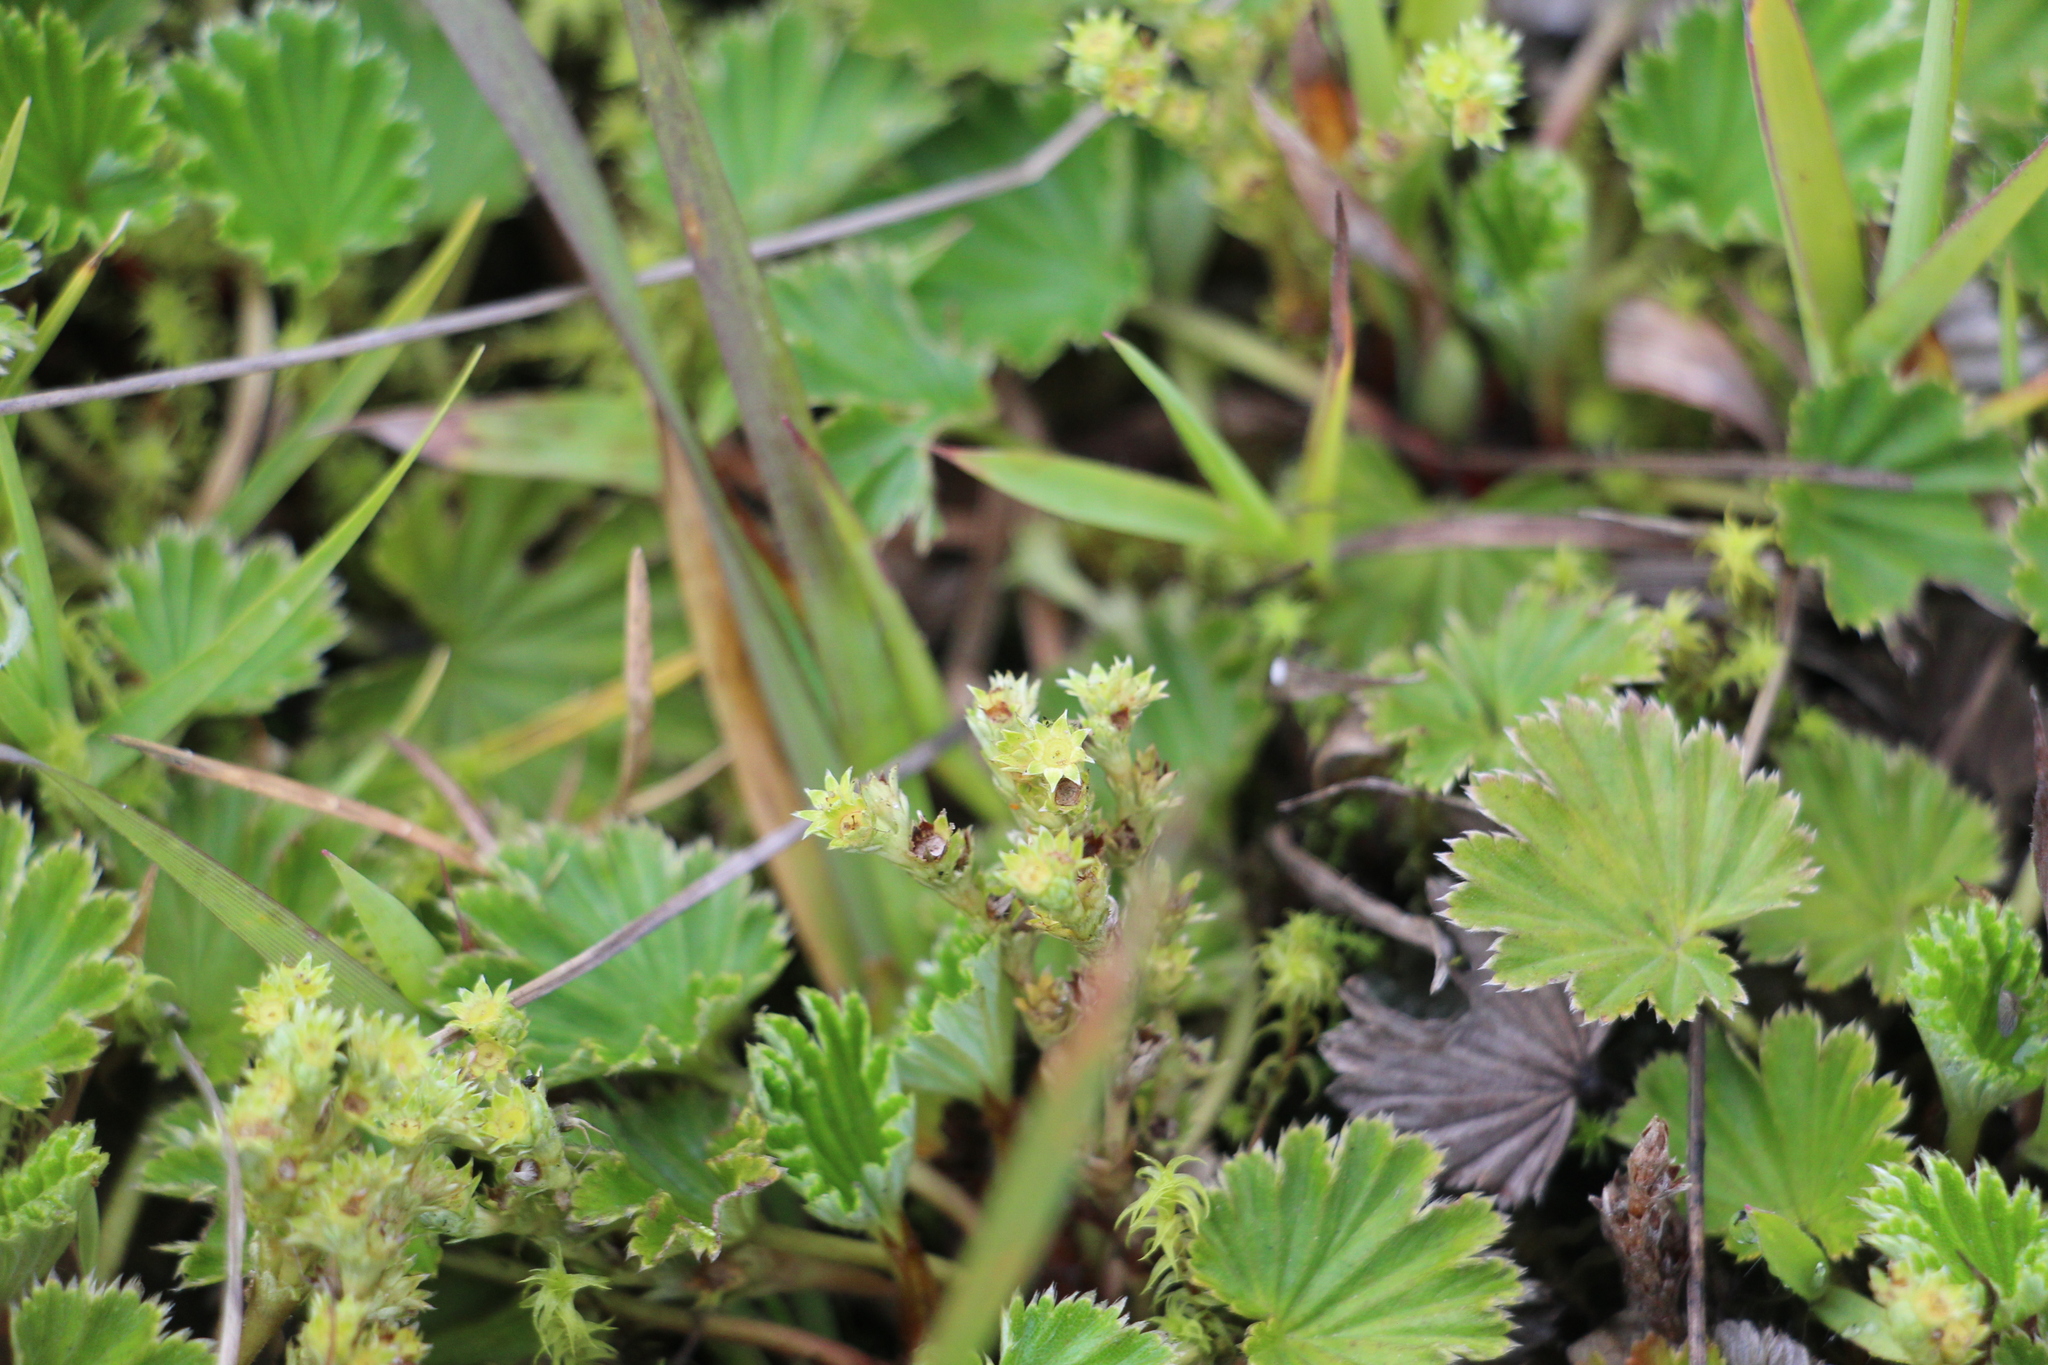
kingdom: Plantae
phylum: Tracheophyta
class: Magnoliopsida
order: Rosales
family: Rosaceae
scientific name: Rosaceae
